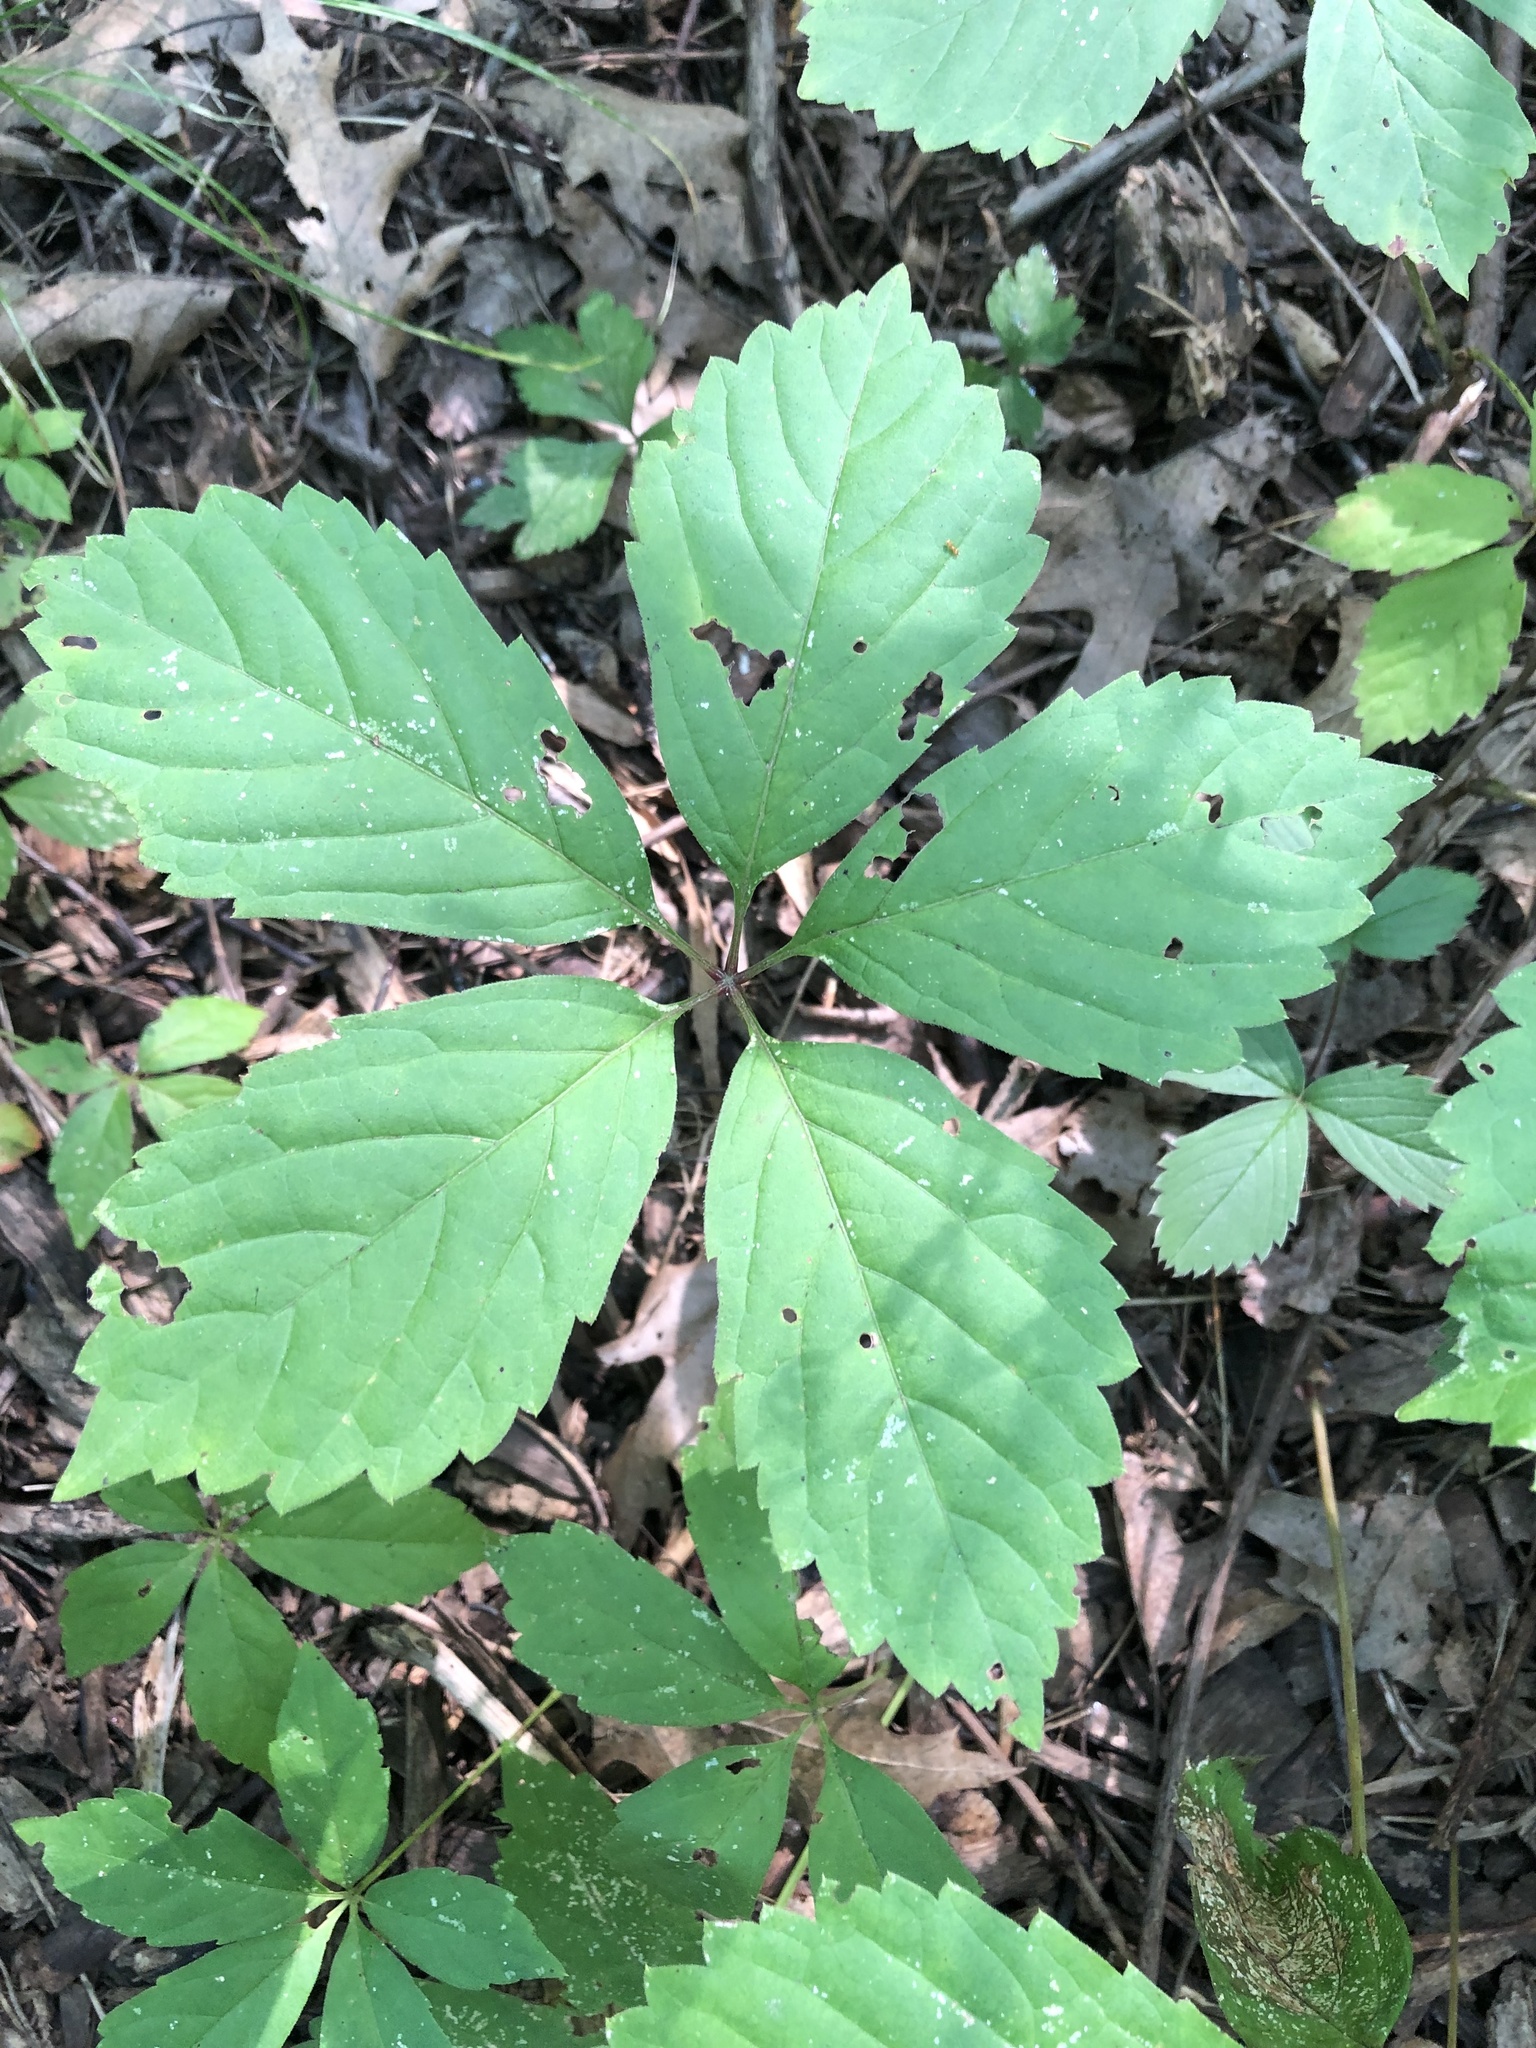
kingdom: Plantae
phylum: Tracheophyta
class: Magnoliopsida
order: Vitales
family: Vitaceae
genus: Parthenocissus
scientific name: Parthenocissus inserta
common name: False virginia-creeper
